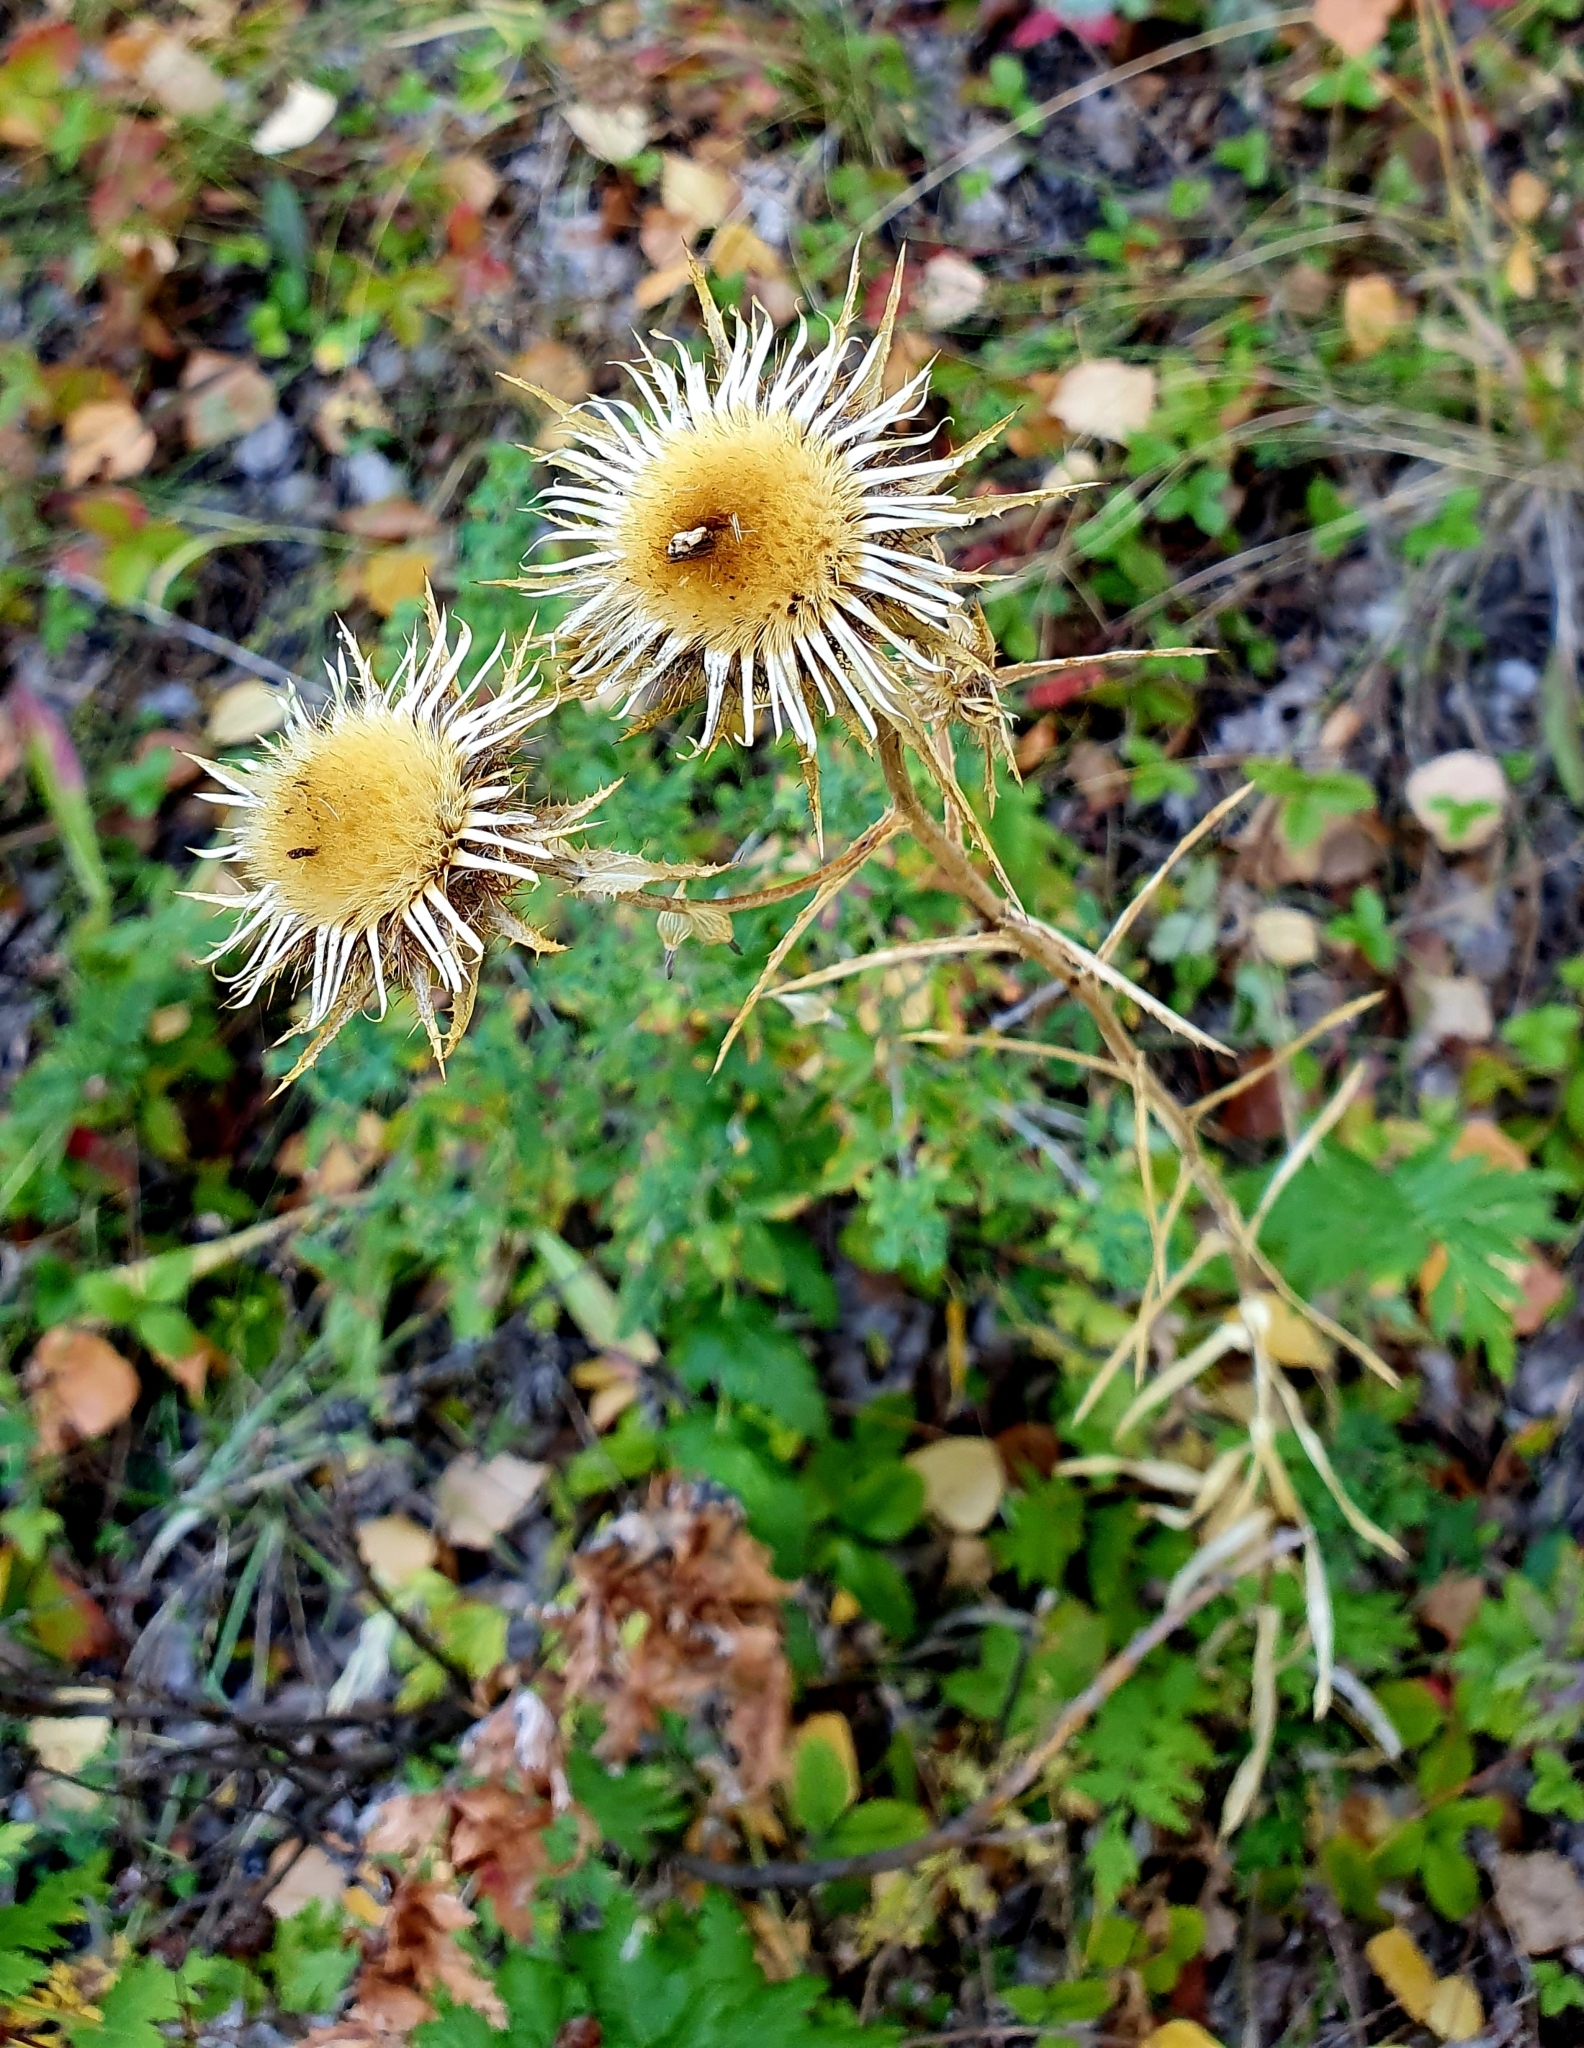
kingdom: Plantae
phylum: Tracheophyta
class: Magnoliopsida
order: Asterales
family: Asteraceae
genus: Carlina
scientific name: Carlina biebersteinii
